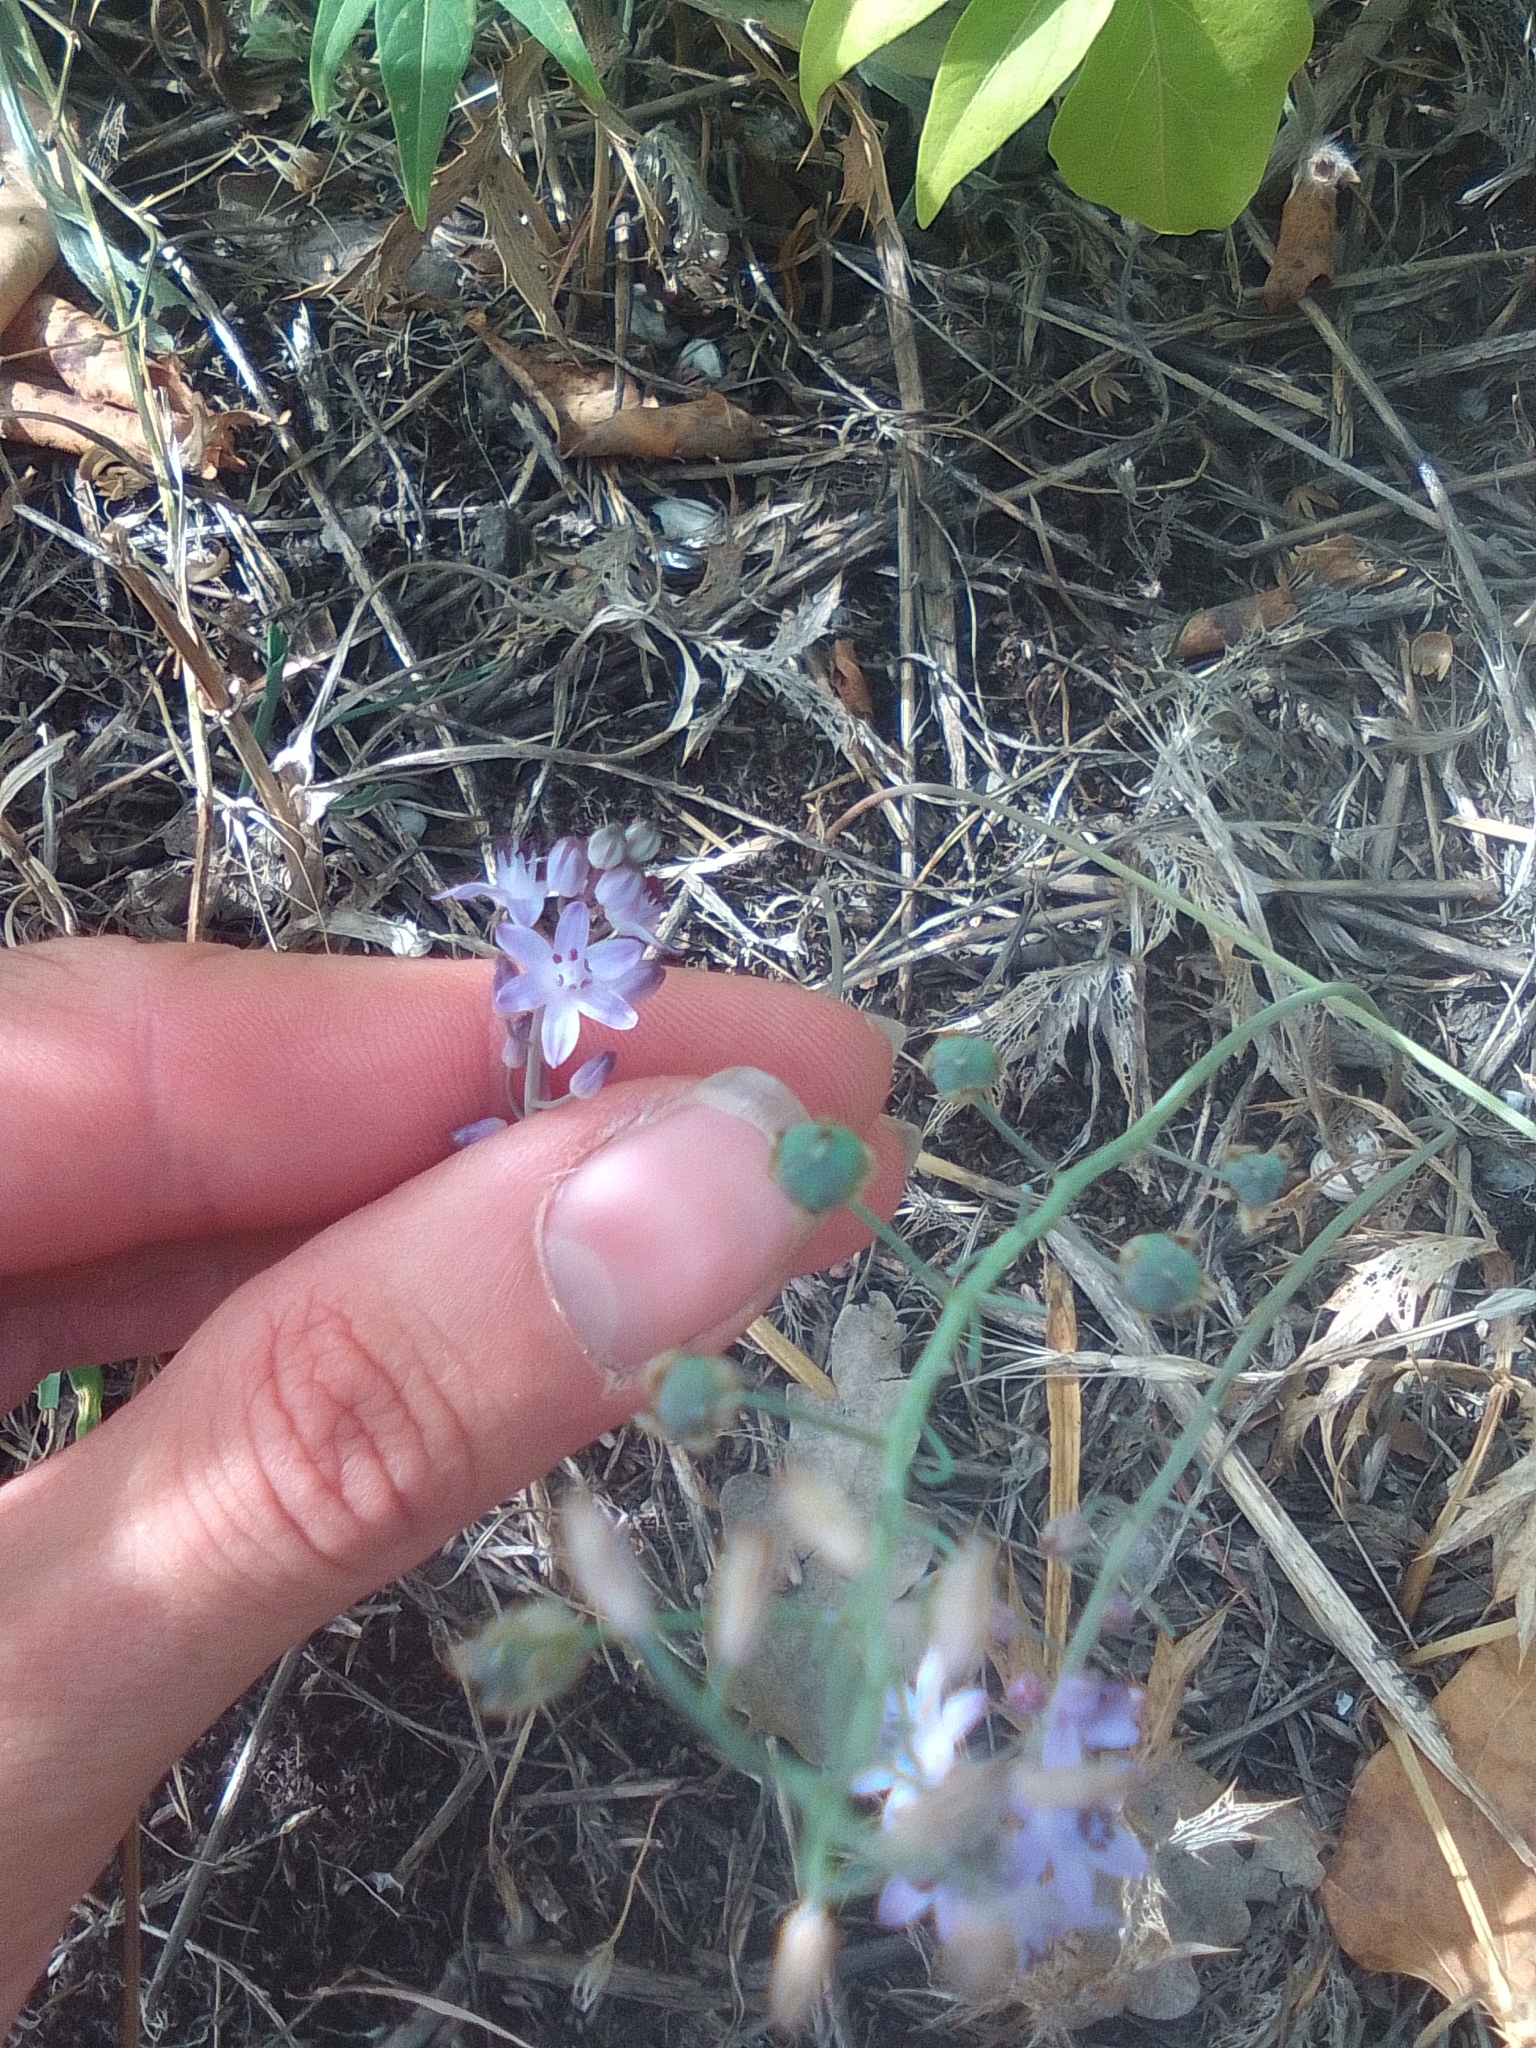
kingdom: Plantae
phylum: Tracheophyta
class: Liliopsida
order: Asparagales
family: Asparagaceae
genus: Prospero
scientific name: Prospero autumnale
